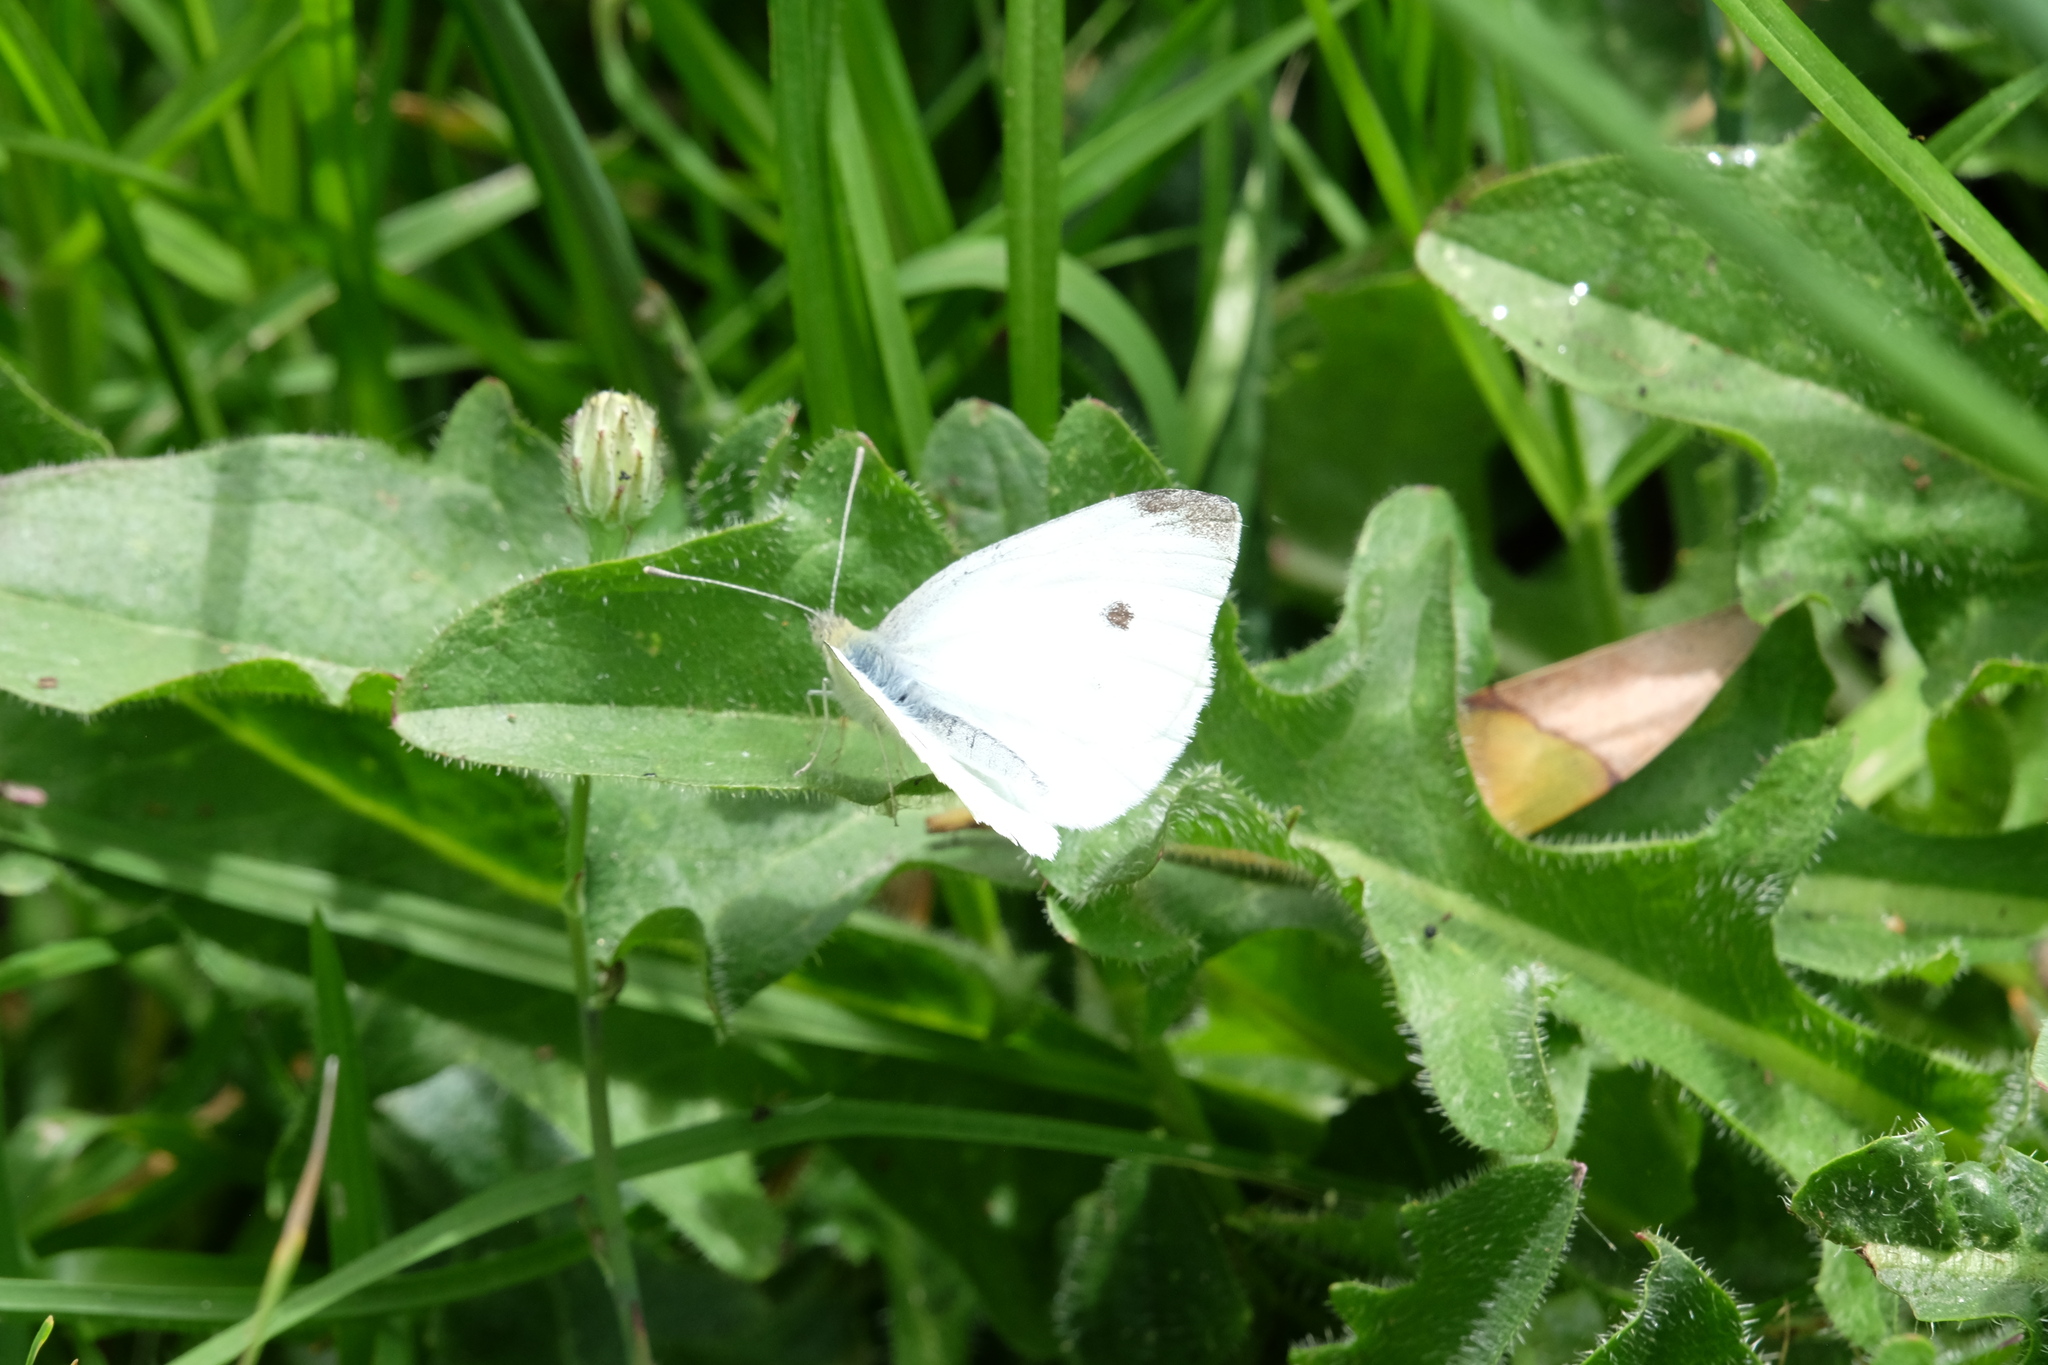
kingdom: Animalia
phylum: Arthropoda
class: Insecta
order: Lepidoptera
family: Pieridae
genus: Pieris
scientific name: Pieris rapae
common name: Small white
